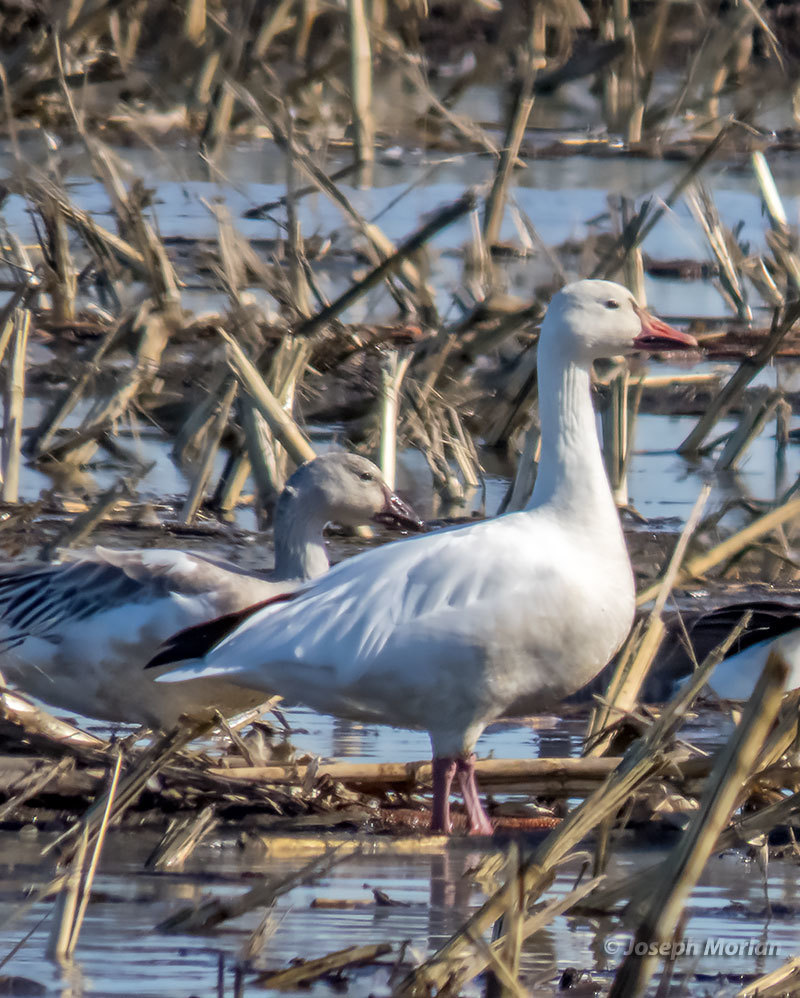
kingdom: Animalia
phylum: Chordata
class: Aves
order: Anseriformes
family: Anatidae
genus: Anser
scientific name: Anser caerulescens
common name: Snow goose
